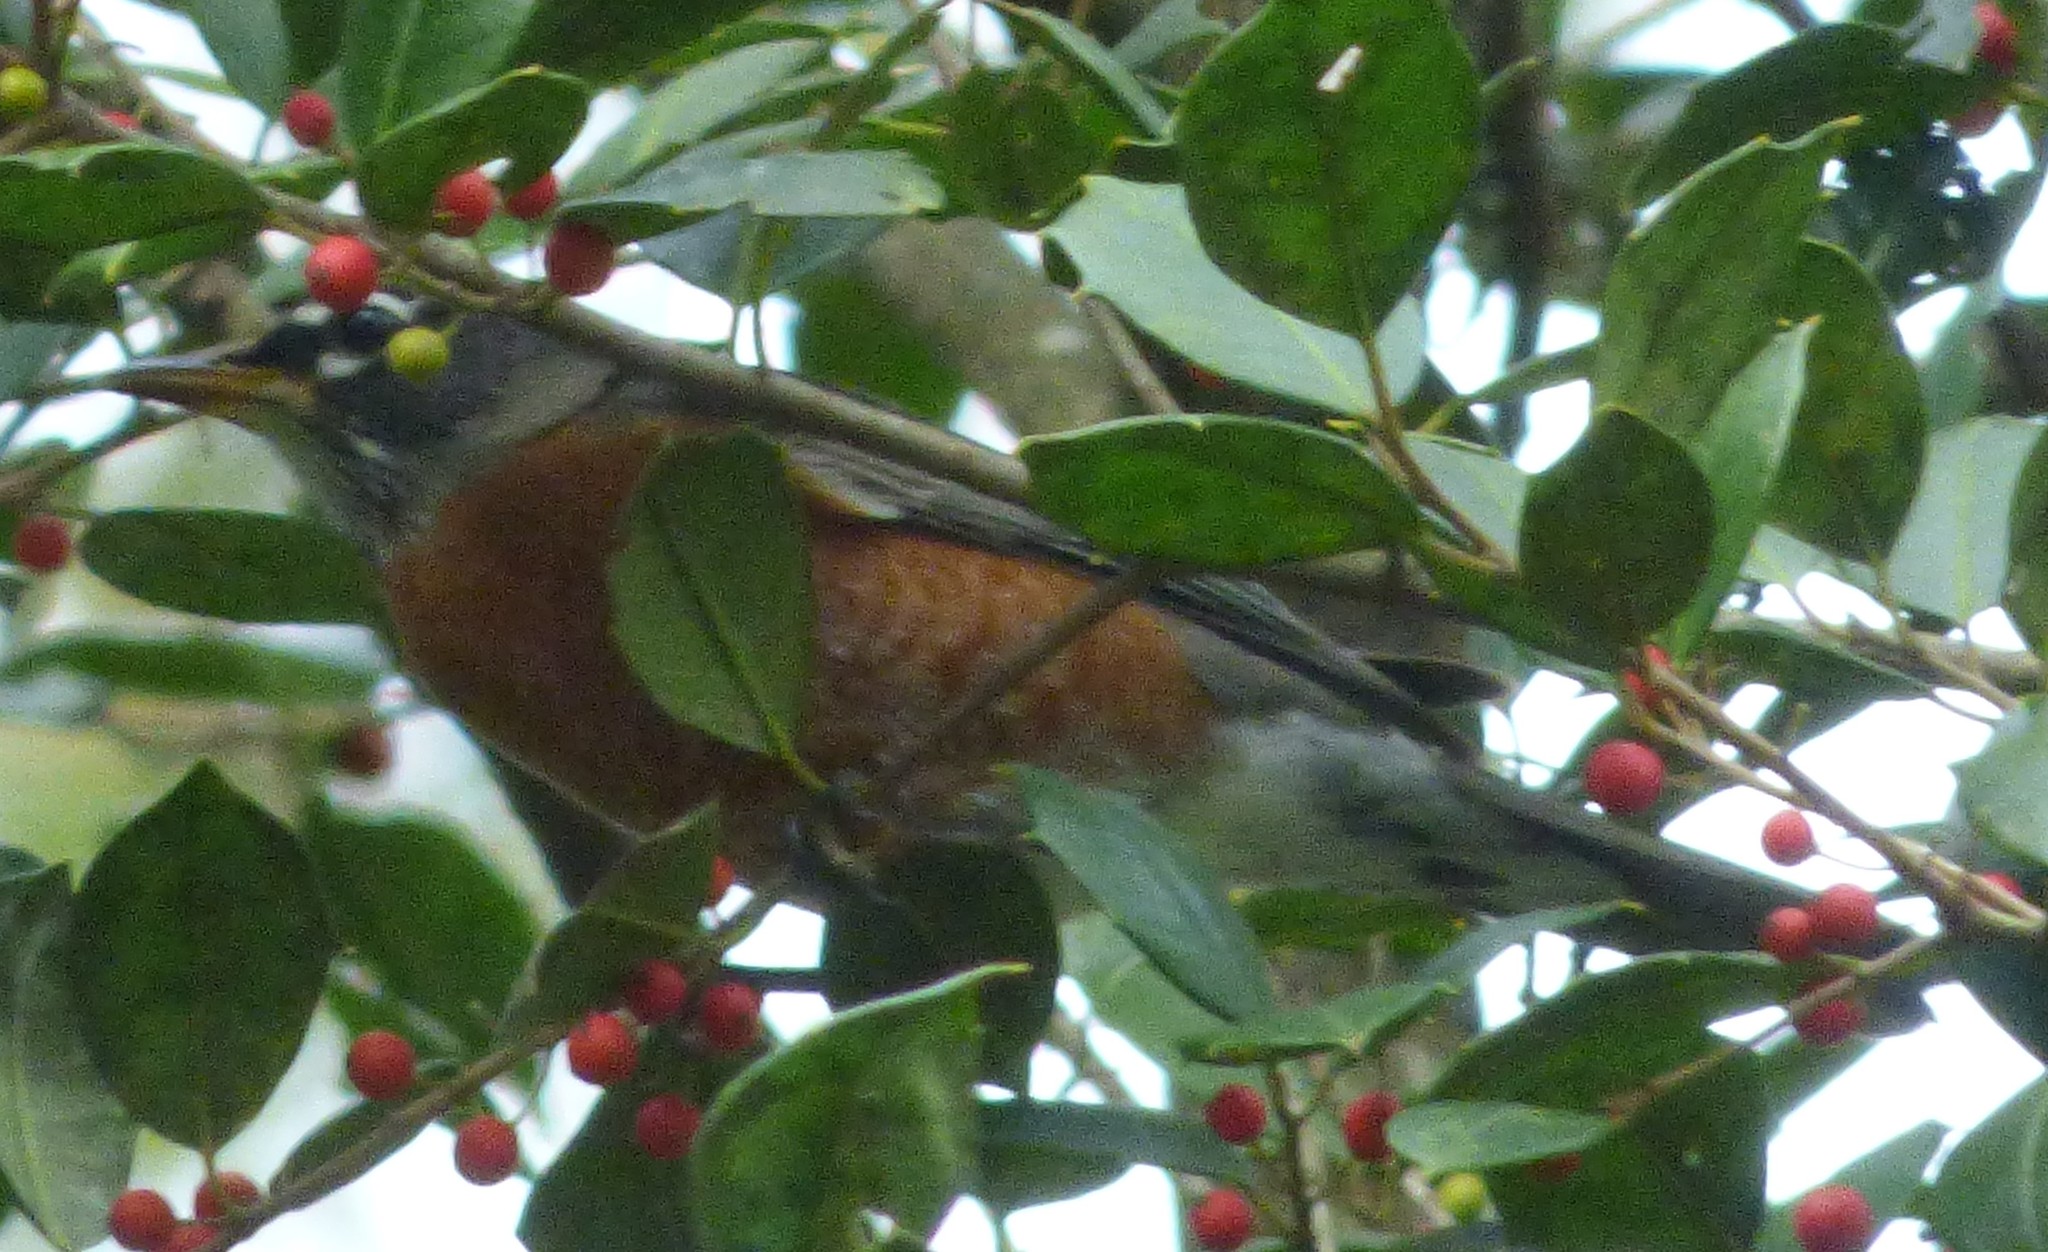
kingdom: Animalia
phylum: Chordata
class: Aves
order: Passeriformes
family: Turdidae
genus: Turdus
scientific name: Turdus migratorius
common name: American robin
